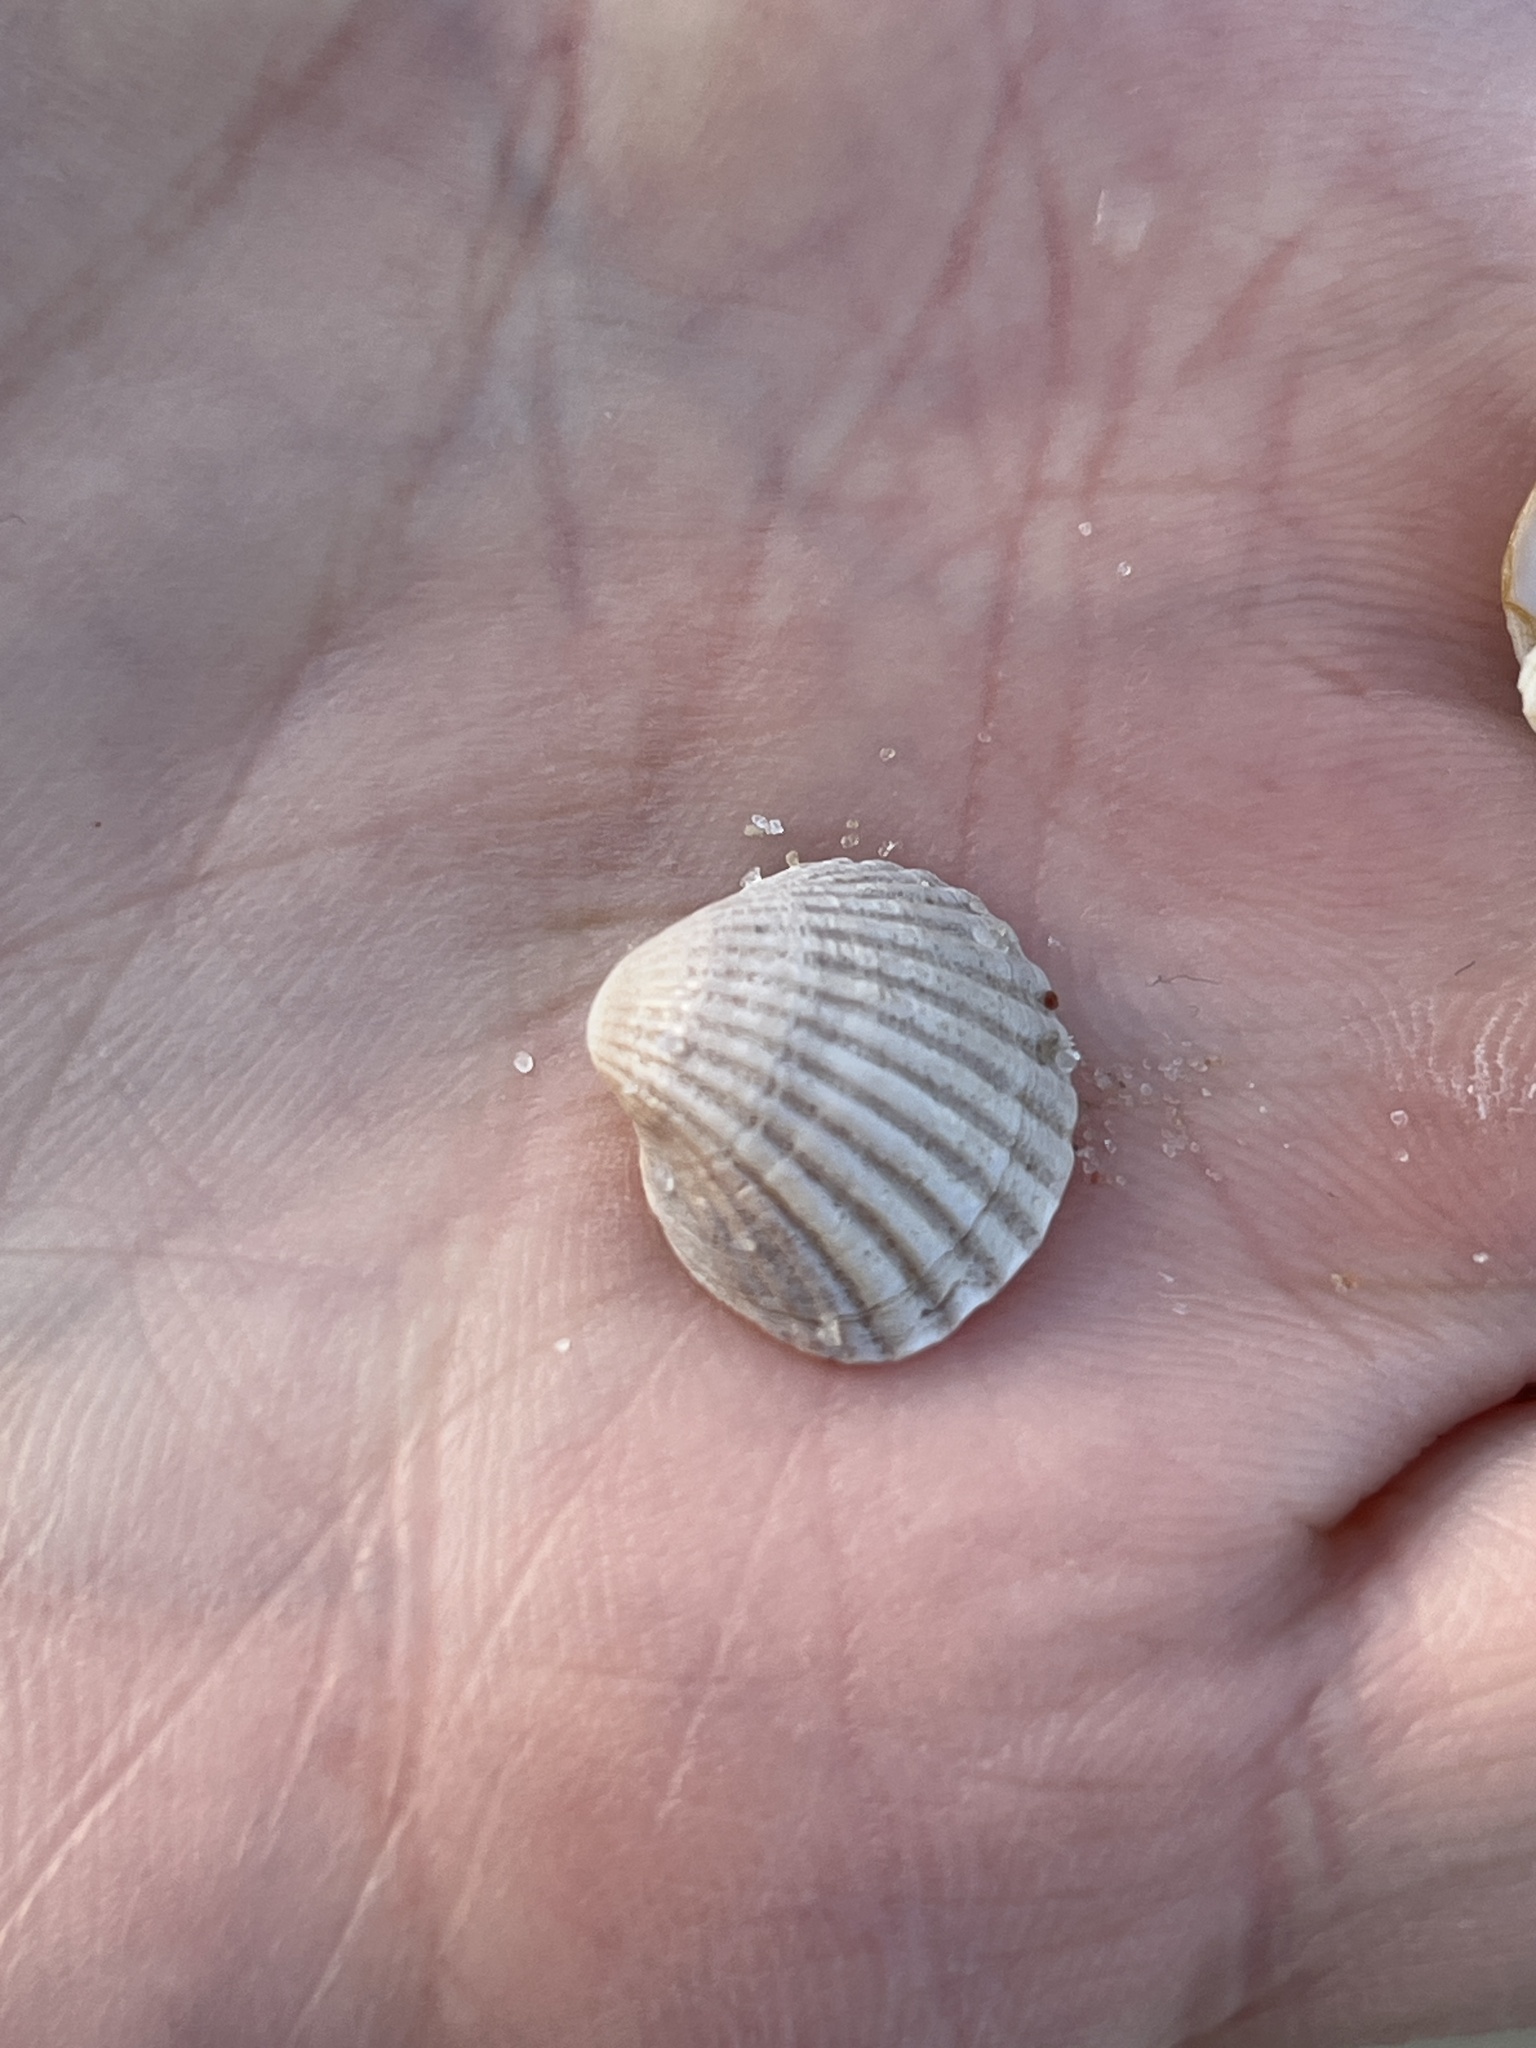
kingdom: Animalia
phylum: Mollusca
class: Bivalvia
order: Cardiida
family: Cardiidae
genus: Cerastoderma
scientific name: Cerastoderma glaucum
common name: Lagoon cockle
